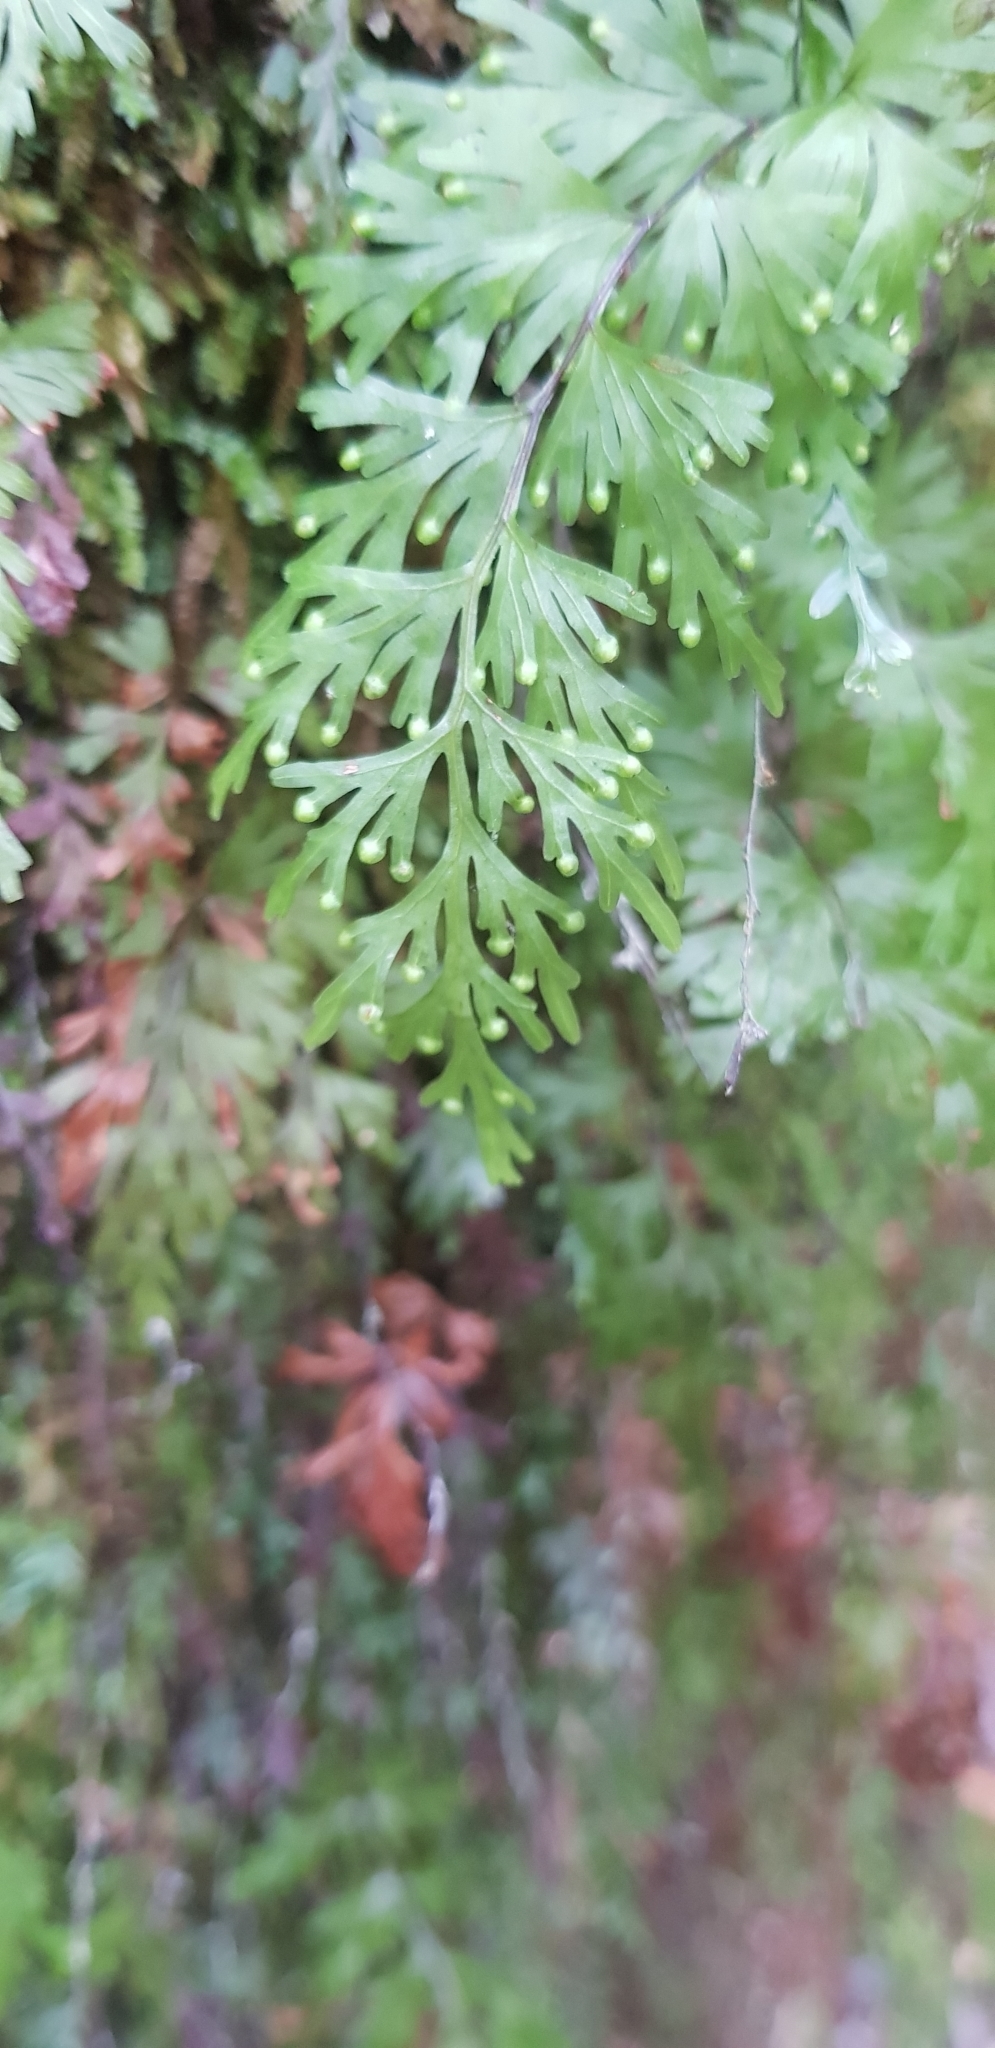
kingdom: Plantae
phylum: Tracheophyta
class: Polypodiopsida
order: Hymenophyllales
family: Hymenophyllaceae
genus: Hymenophyllum
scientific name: Hymenophyllum flabellatum
